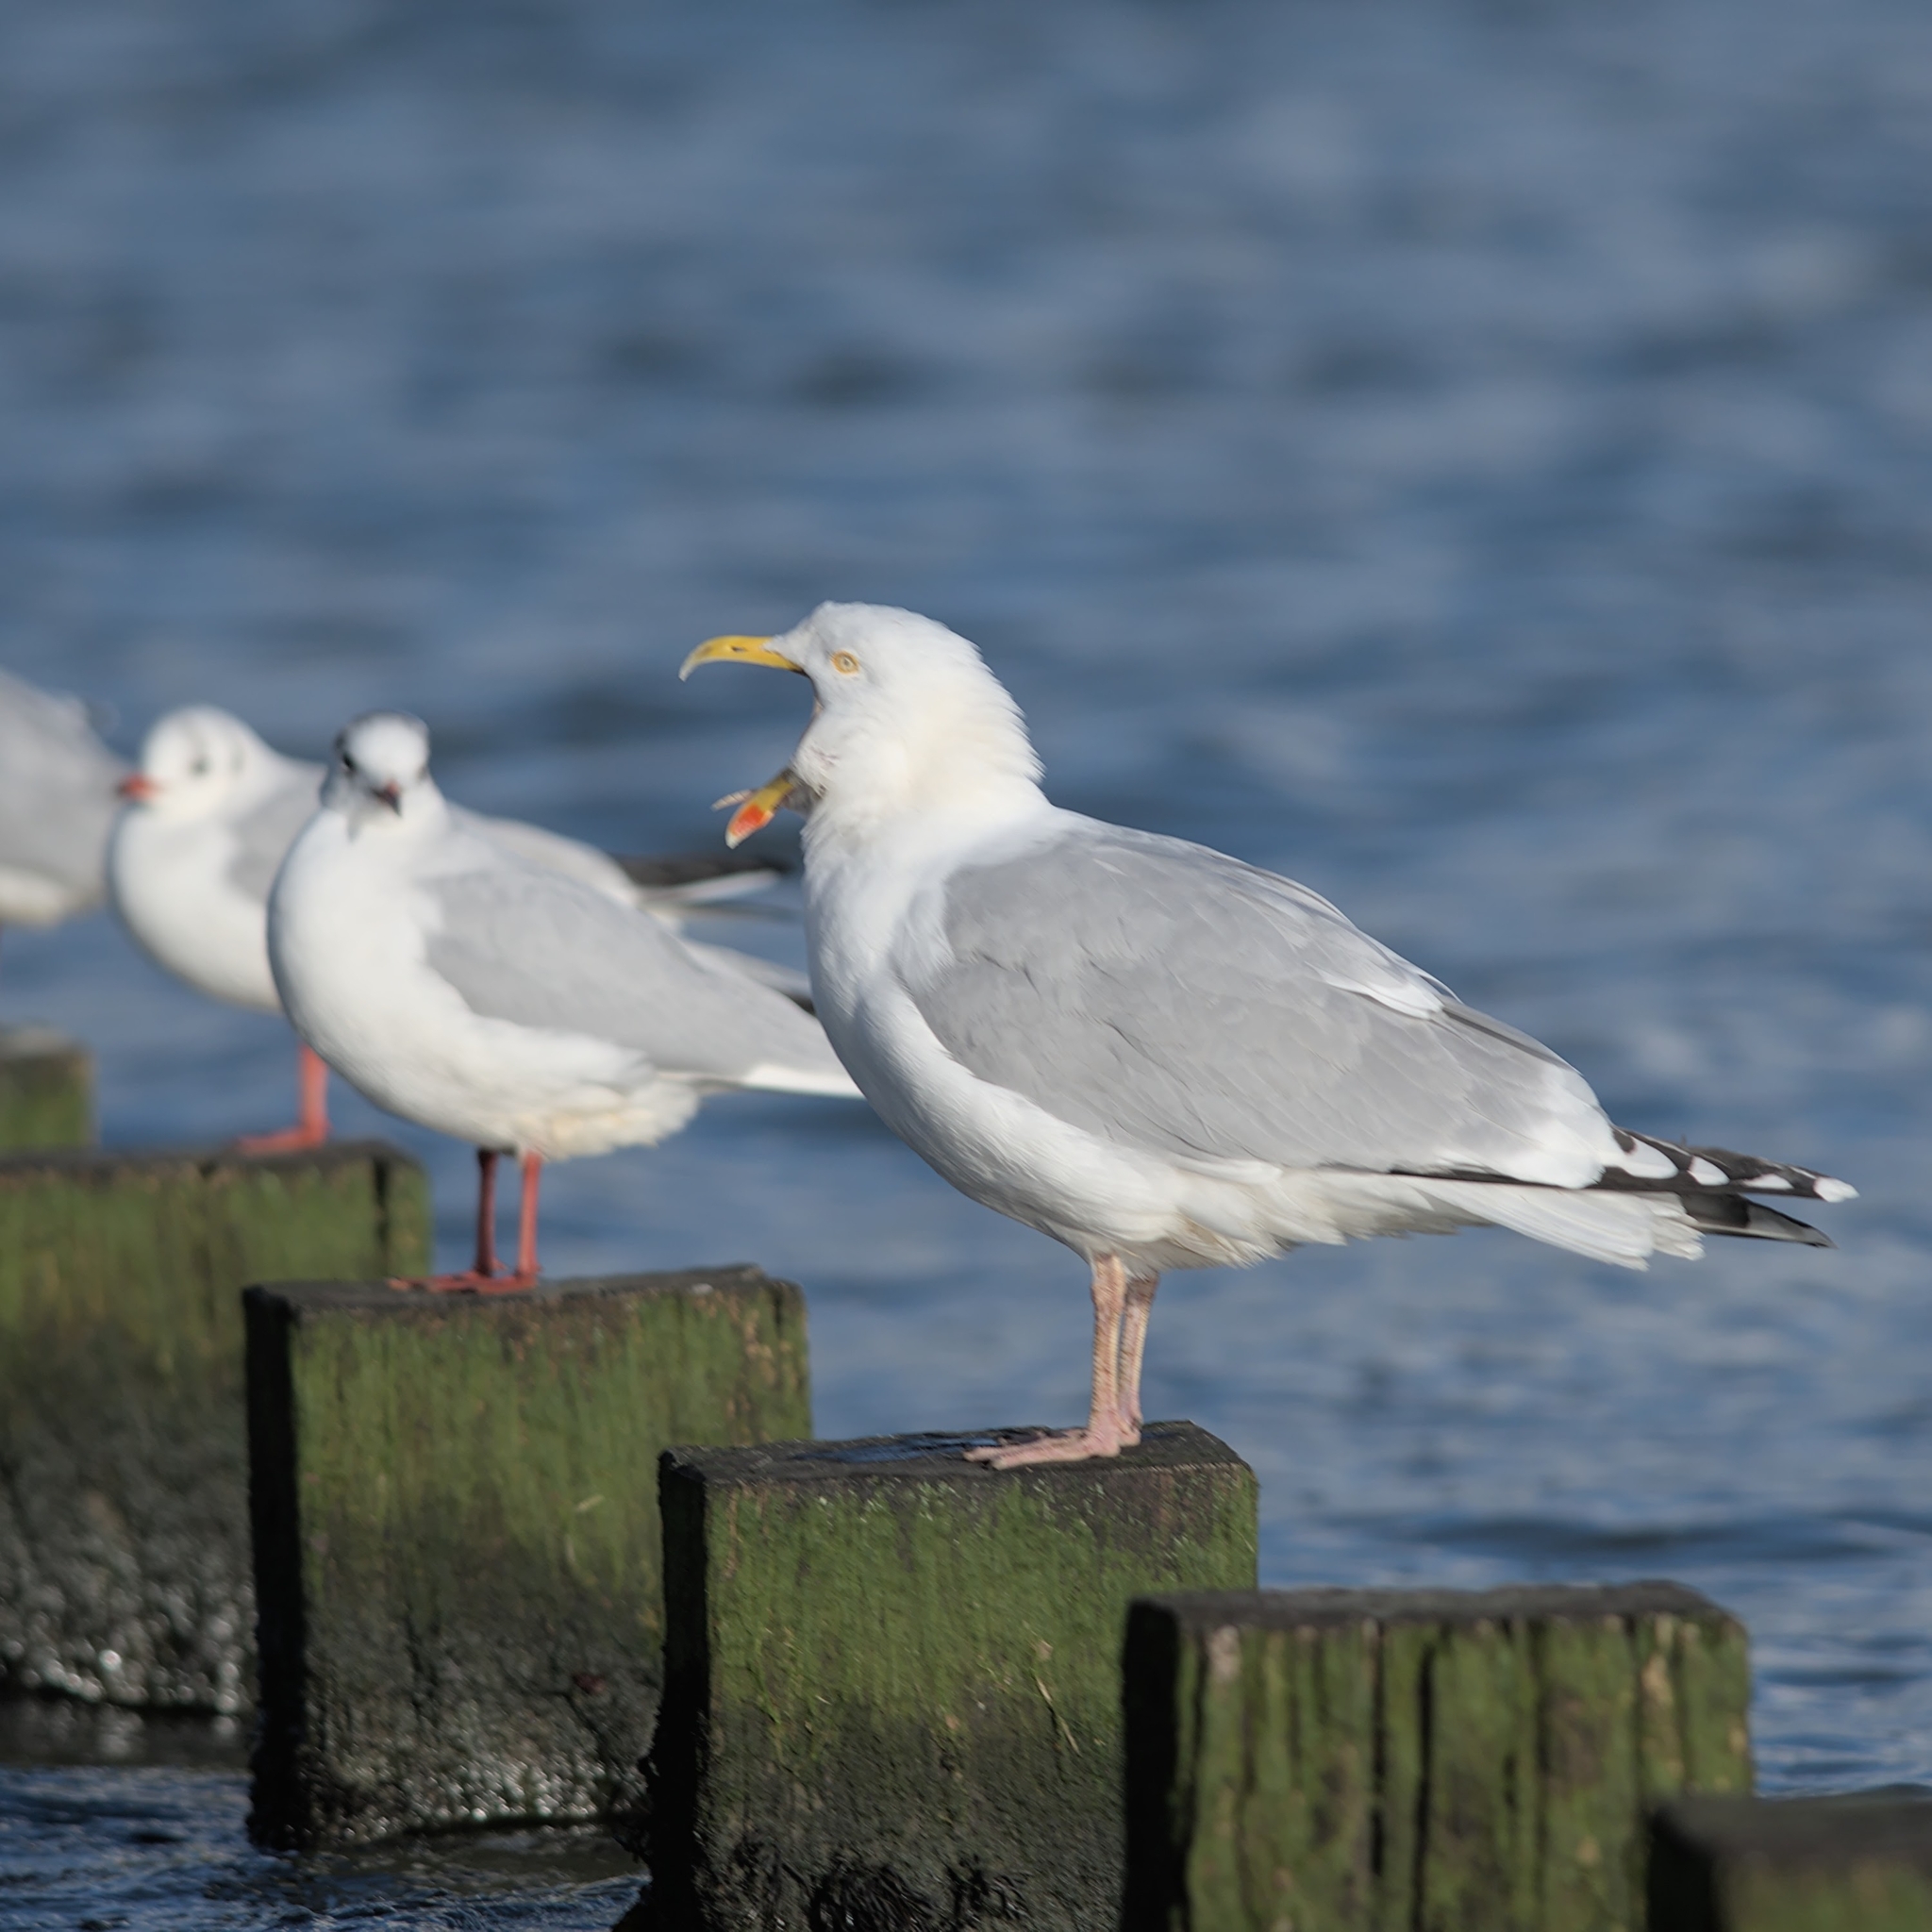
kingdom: Animalia
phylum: Chordata
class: Aves
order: Charadriiformes
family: Laridae
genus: Larus
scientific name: Larus argentatus
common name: Herring gull
